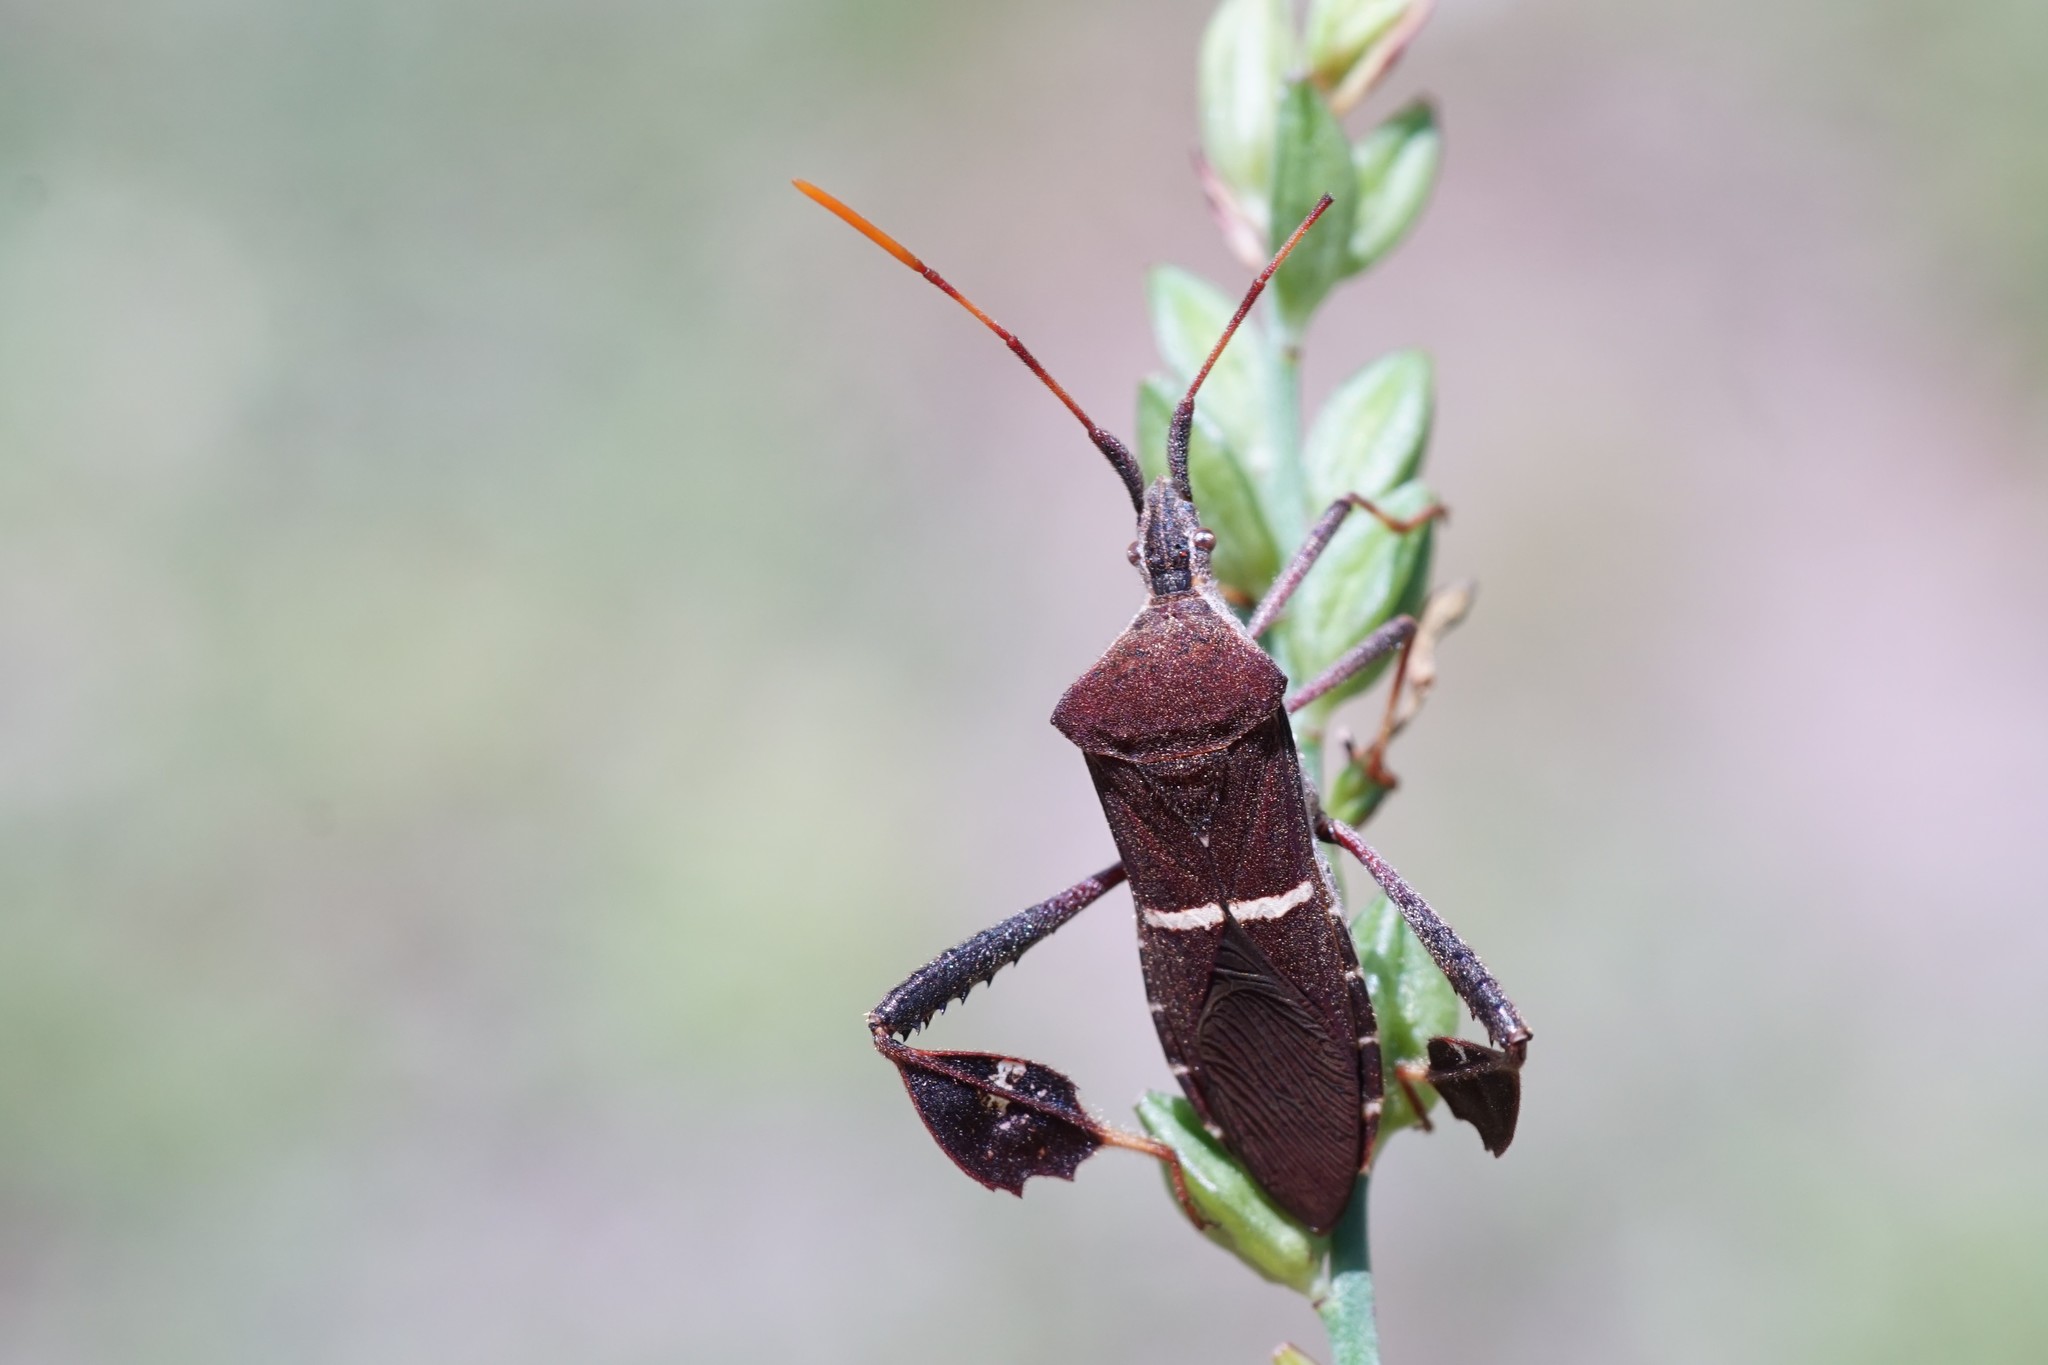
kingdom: Animalia
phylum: Arthropoda
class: Insecta
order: Hemiptera
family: Coreidae
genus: Leptoglossus
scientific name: Leptoglossus phyllopus
